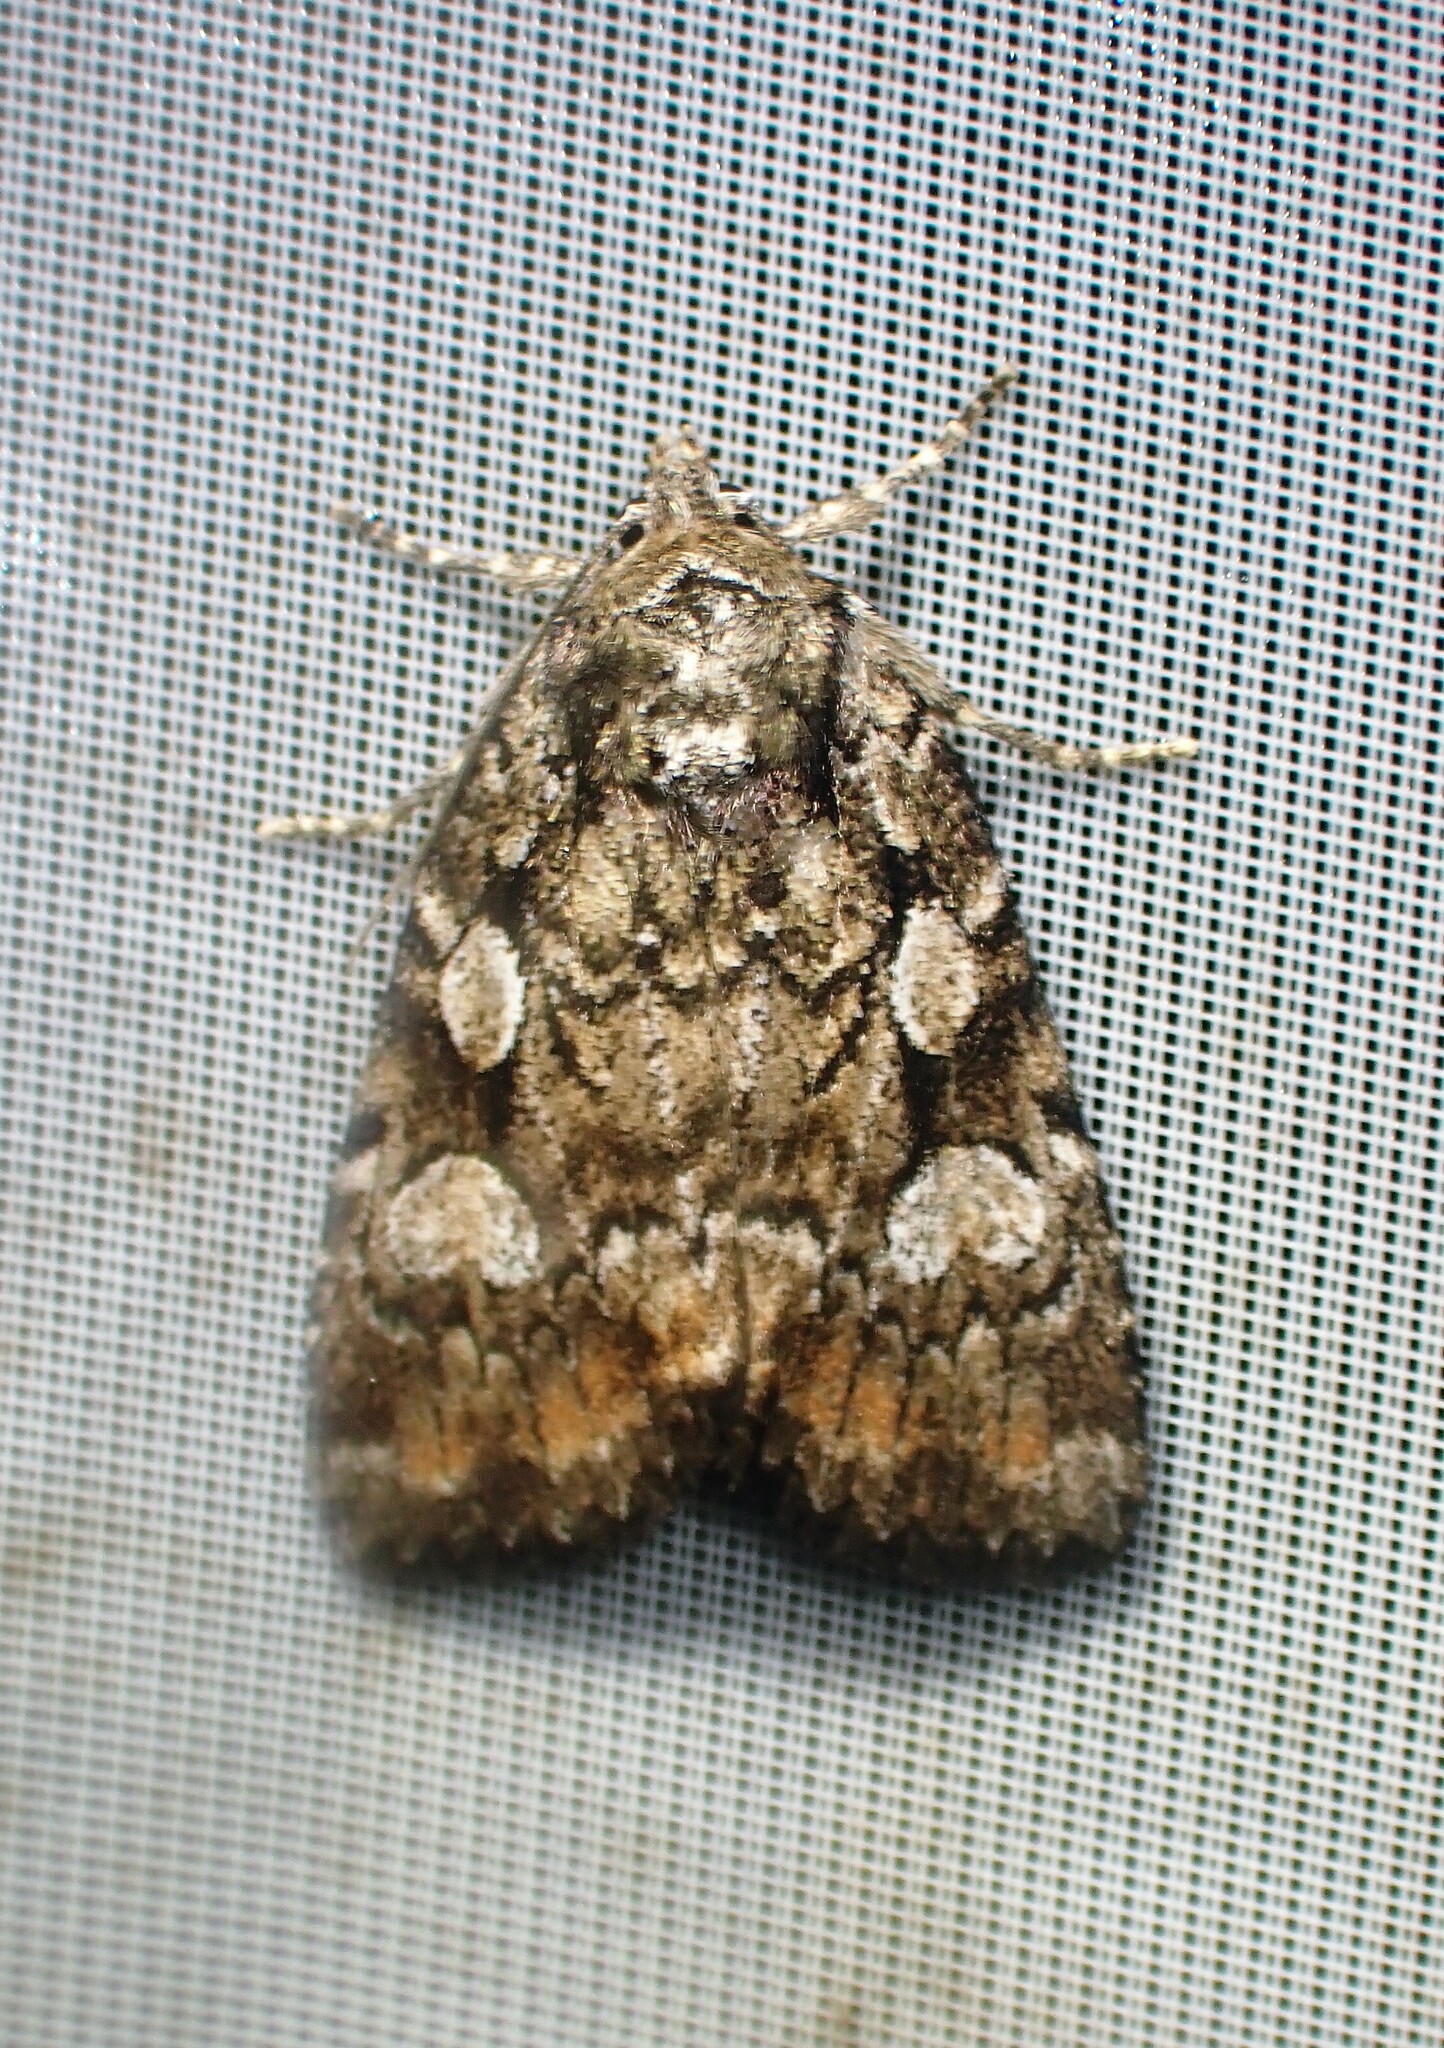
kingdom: Animalia
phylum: Arthropoda
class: Insecta
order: Lepidoptera
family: Noctuidae
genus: Aplectoides
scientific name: Aplectoides condita
